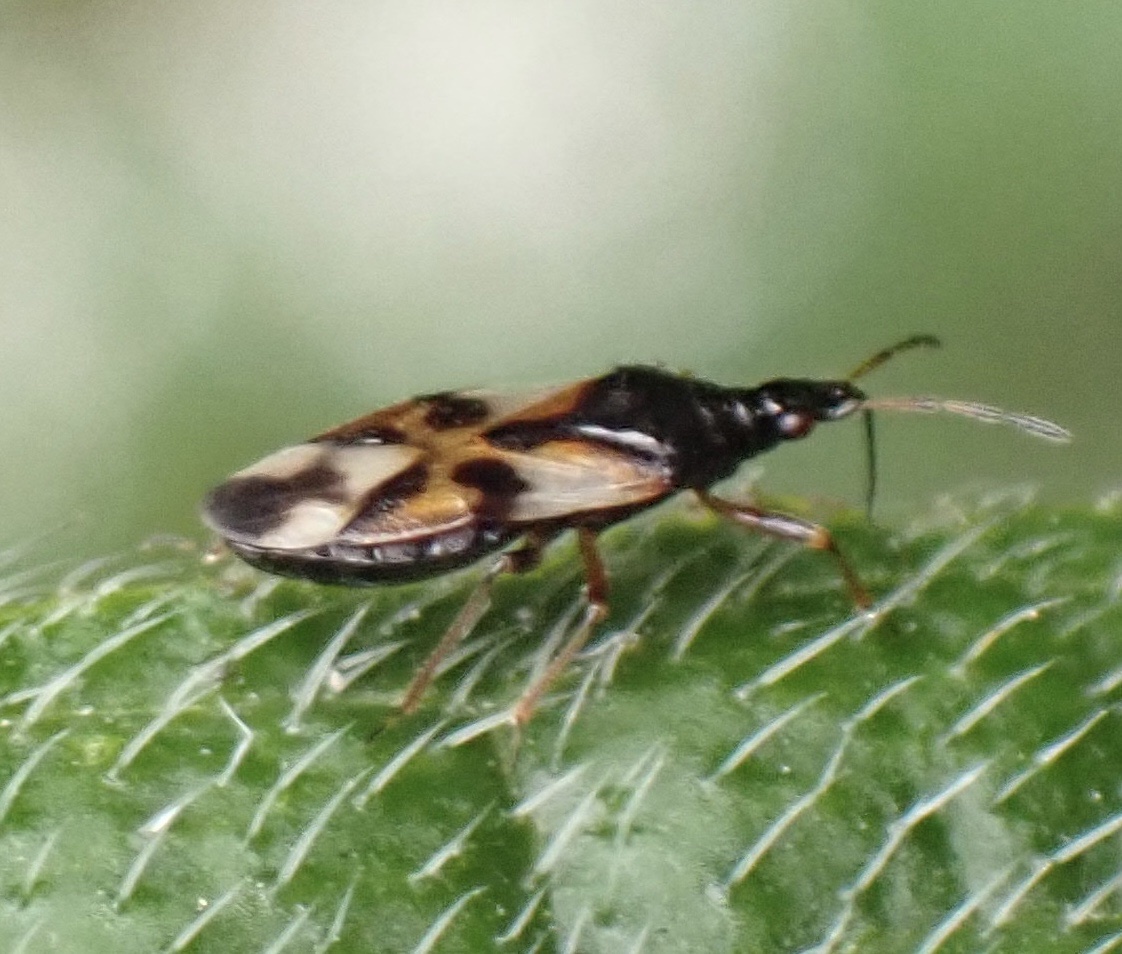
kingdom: Animalia
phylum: Arthropoda
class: Insecta
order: Hemiptera
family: Anthocoridae
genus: Anthocoris
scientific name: Anthocoris nemorum
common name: Minute pirate bug
